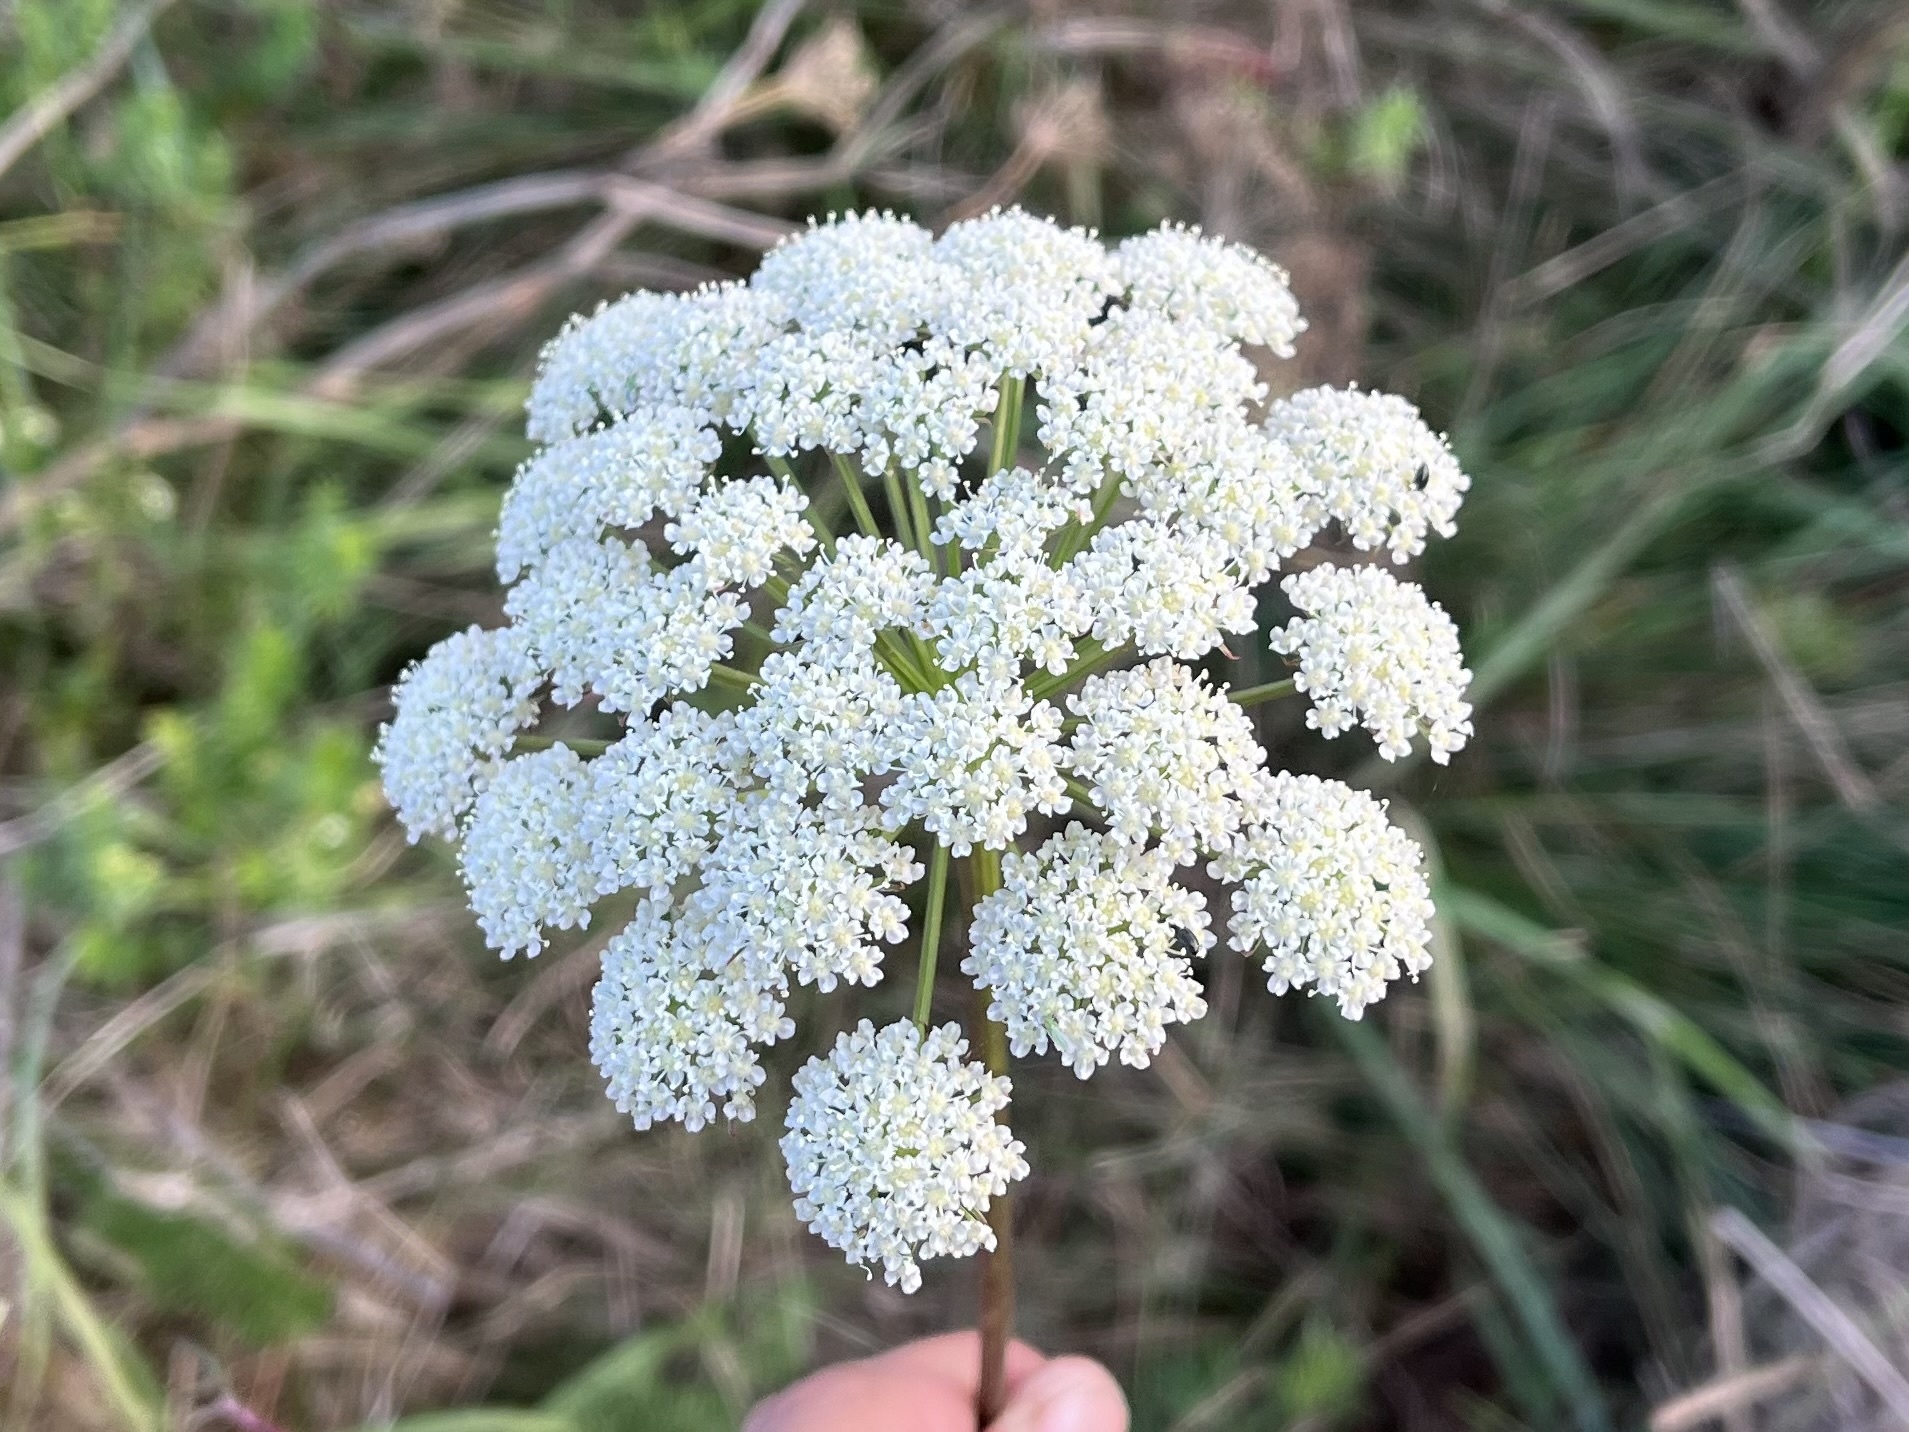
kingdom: Plantae
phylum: Tracheophyta
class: Magnoliopsida
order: Apiales
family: Apiaceae
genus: Seseli
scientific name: Seseli annuum
